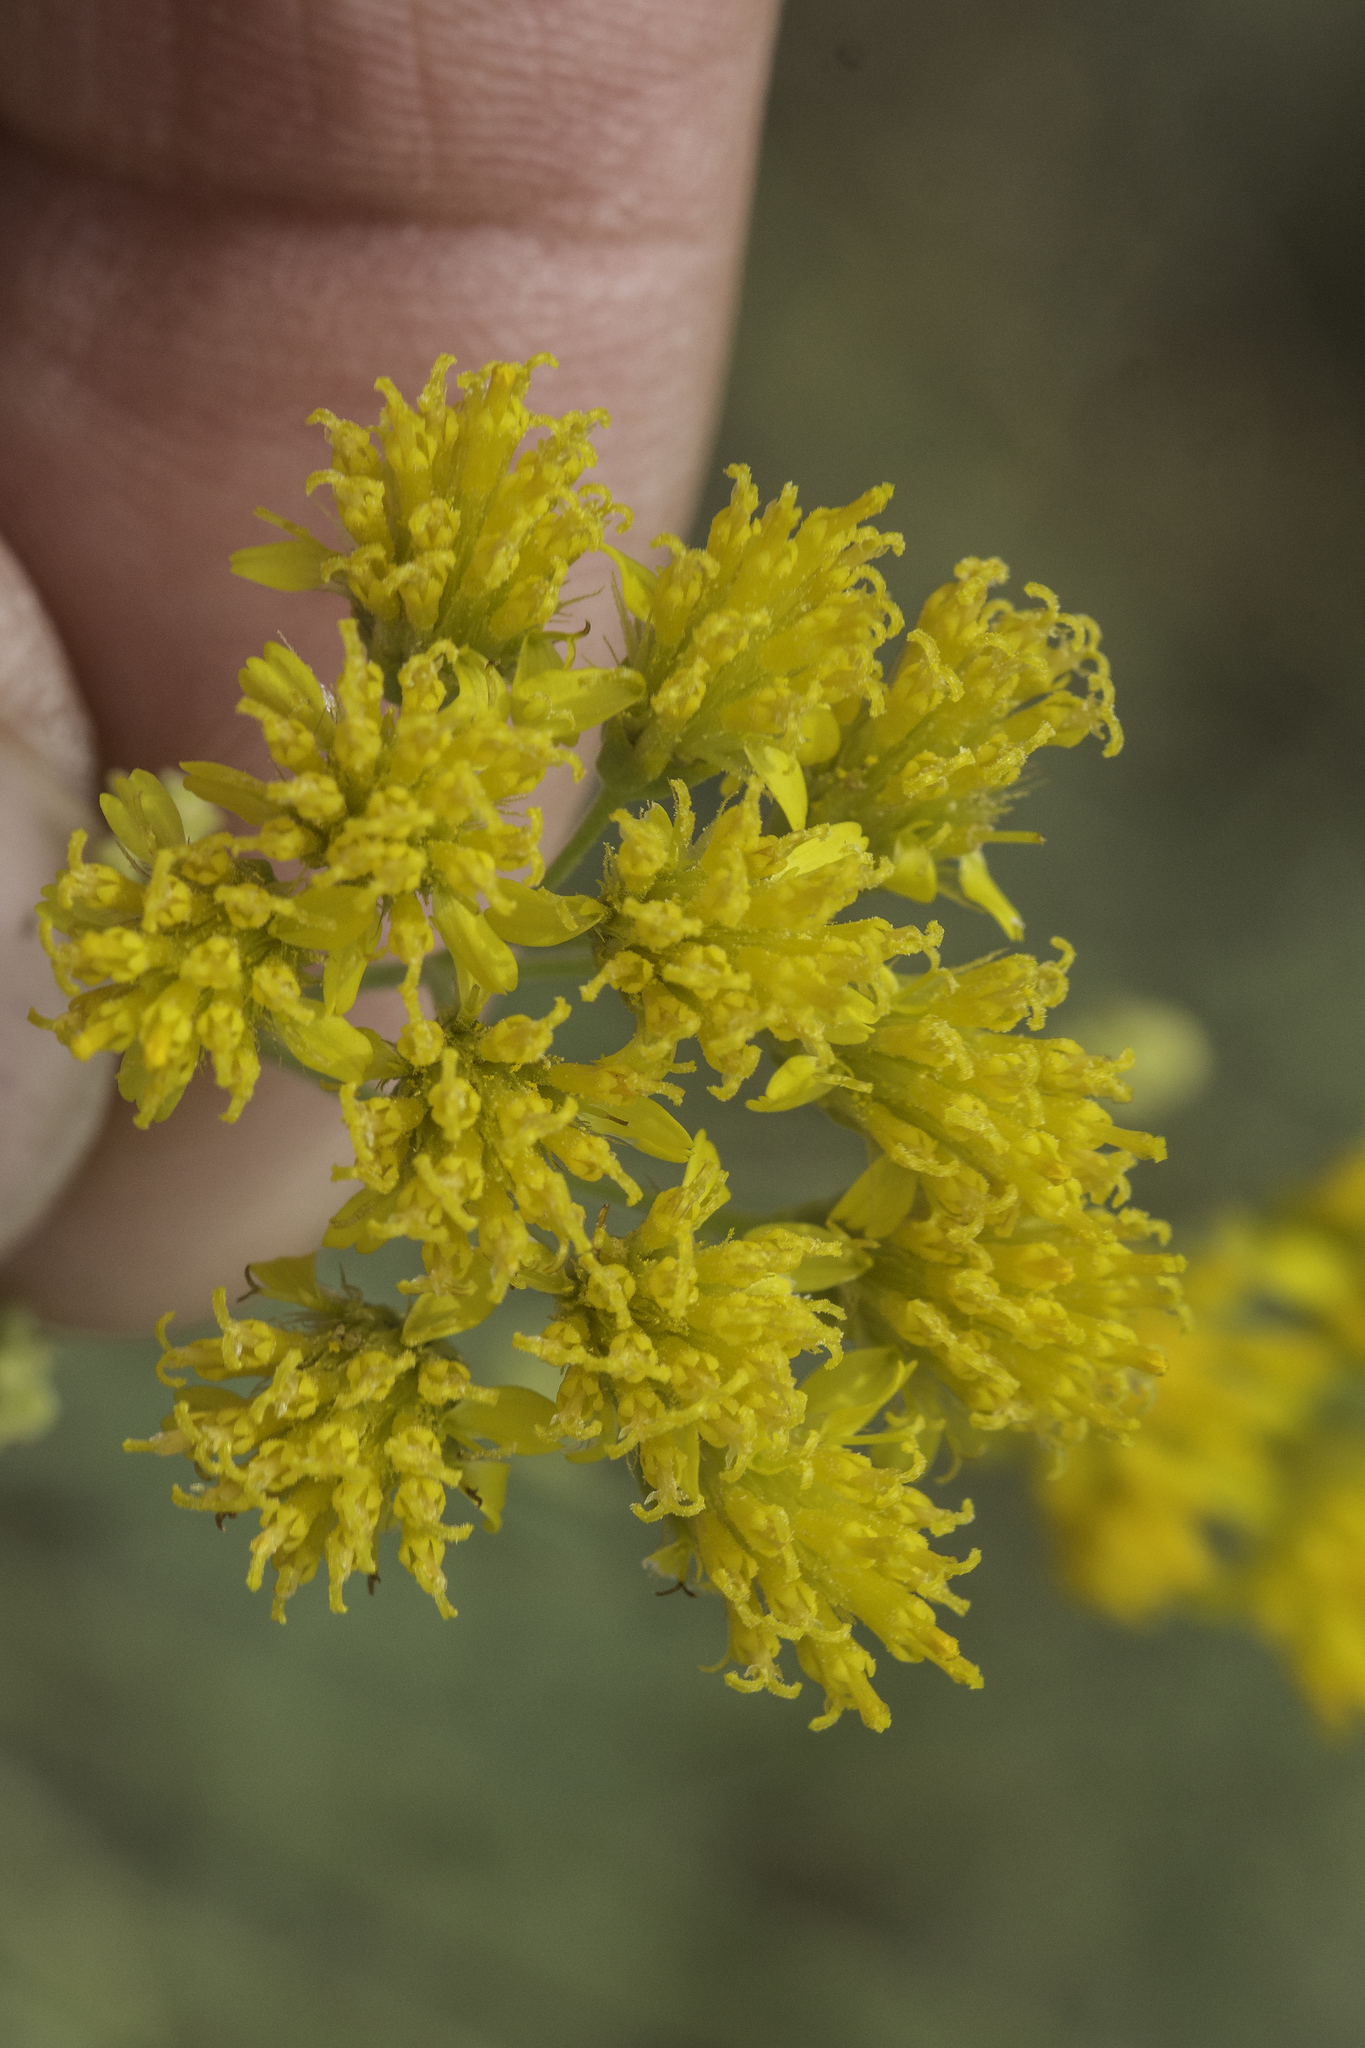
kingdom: Plantae
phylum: Tracheophyta
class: Magnoliopsida
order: Asterales
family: Asteraceae
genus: Hymenothrix
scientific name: Hymenothrix wislizeni
